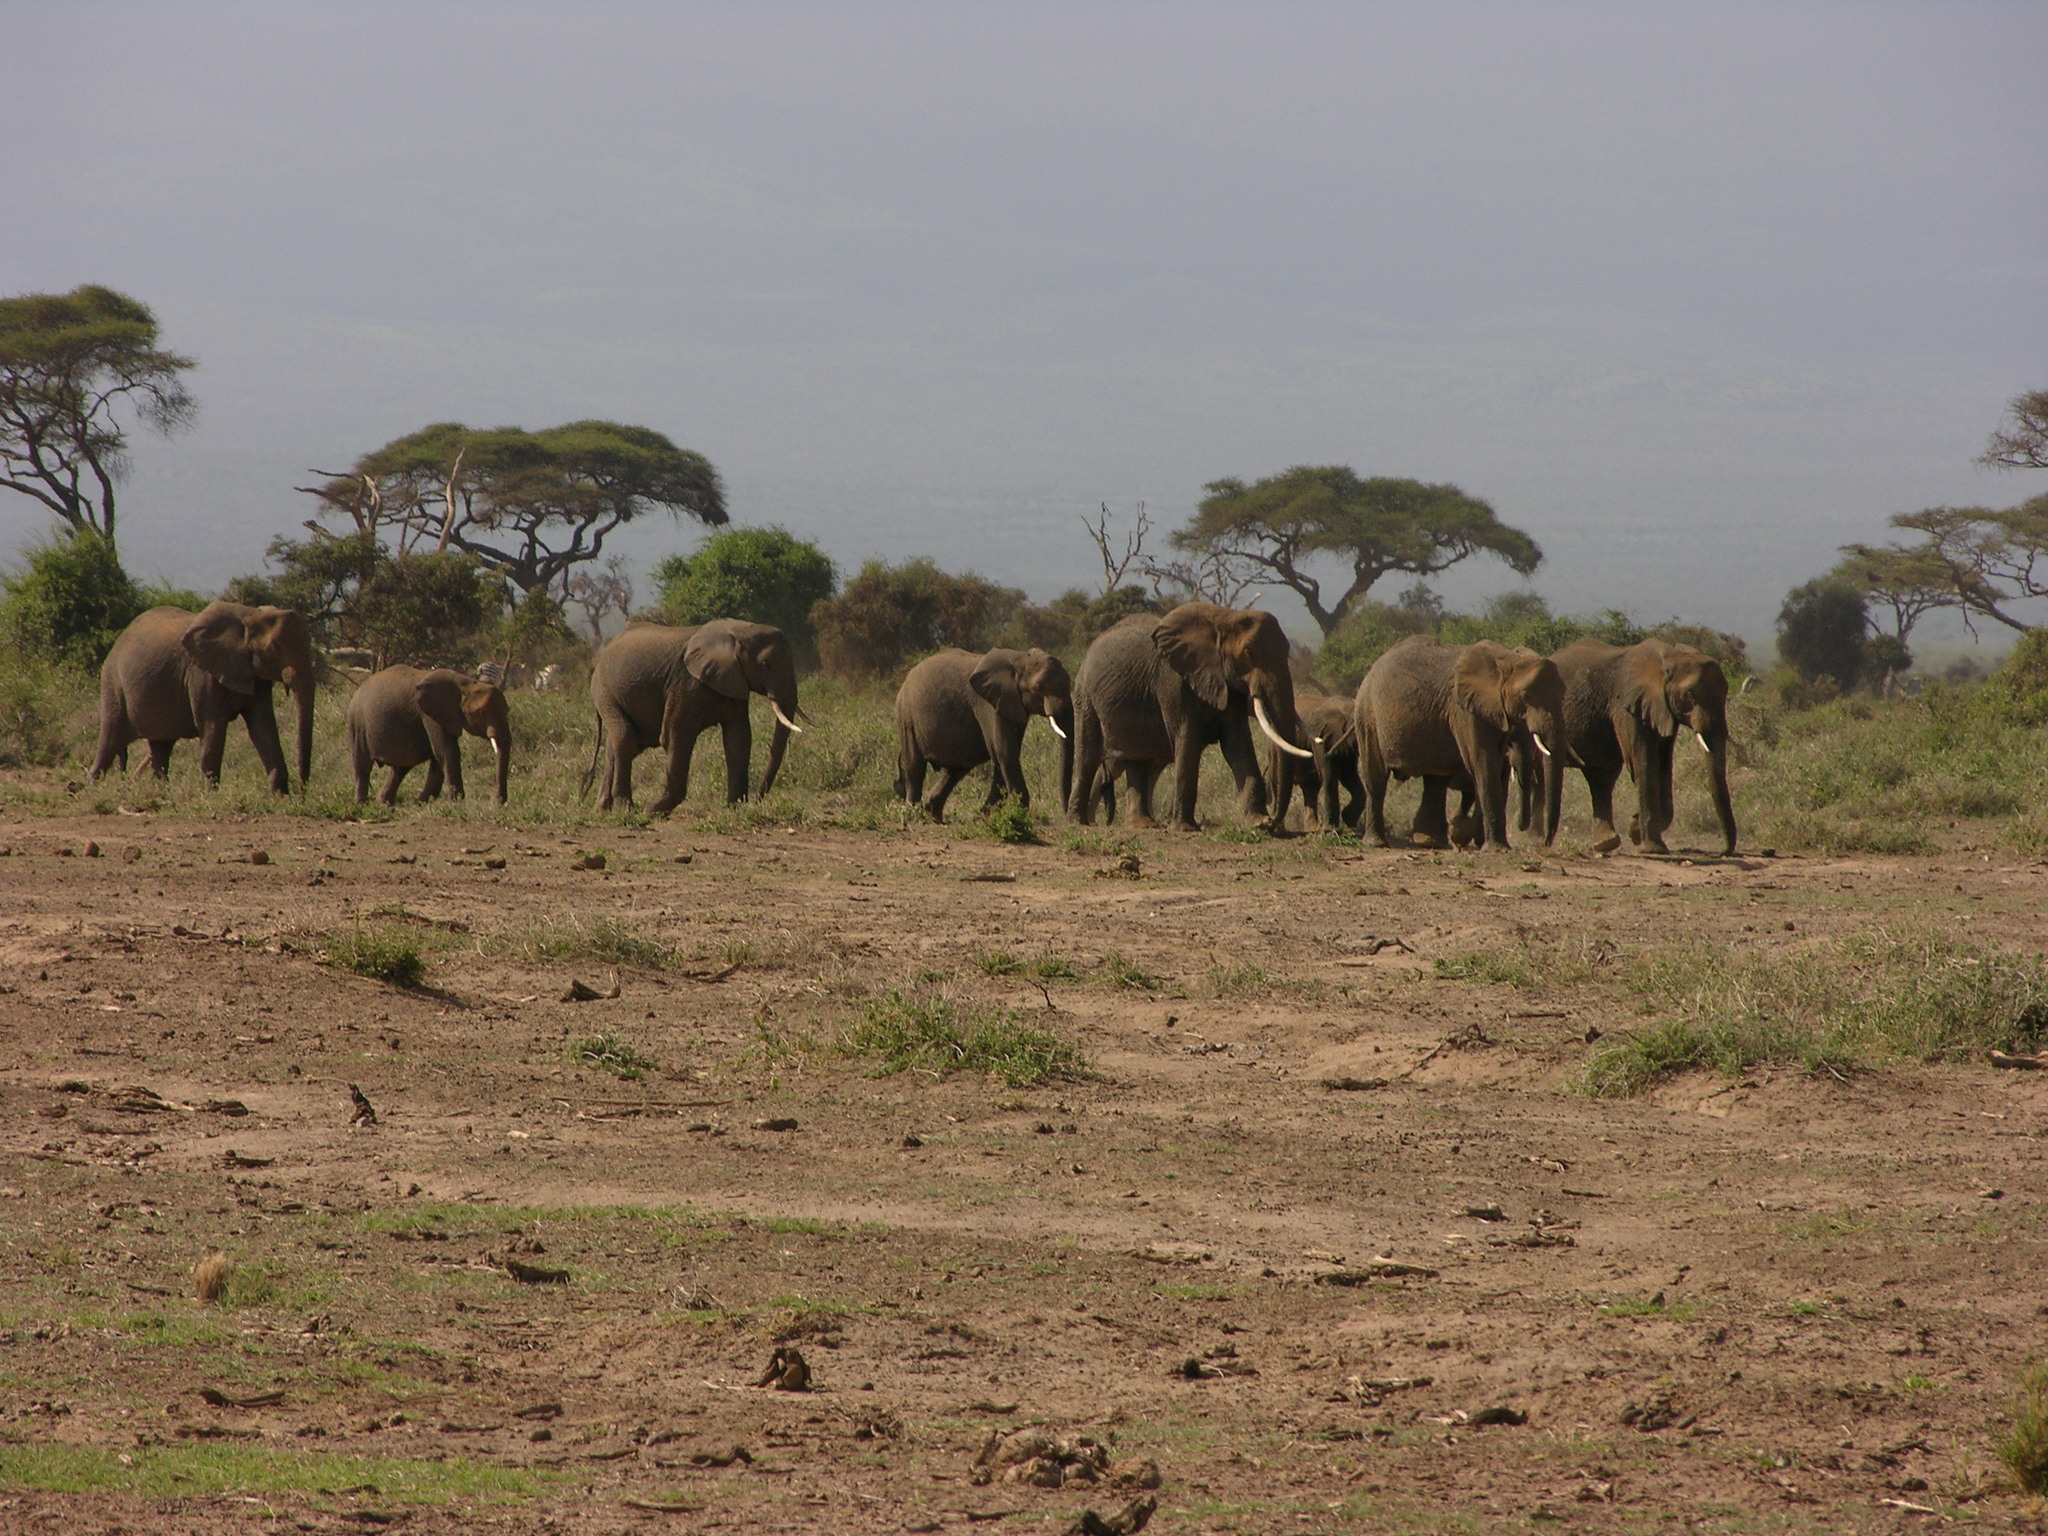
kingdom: Animalia
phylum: Chordata
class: Mammalia
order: Proboscidea
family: Elephantidae
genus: Loxodonta
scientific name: Loxodonta africana
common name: African elephant
